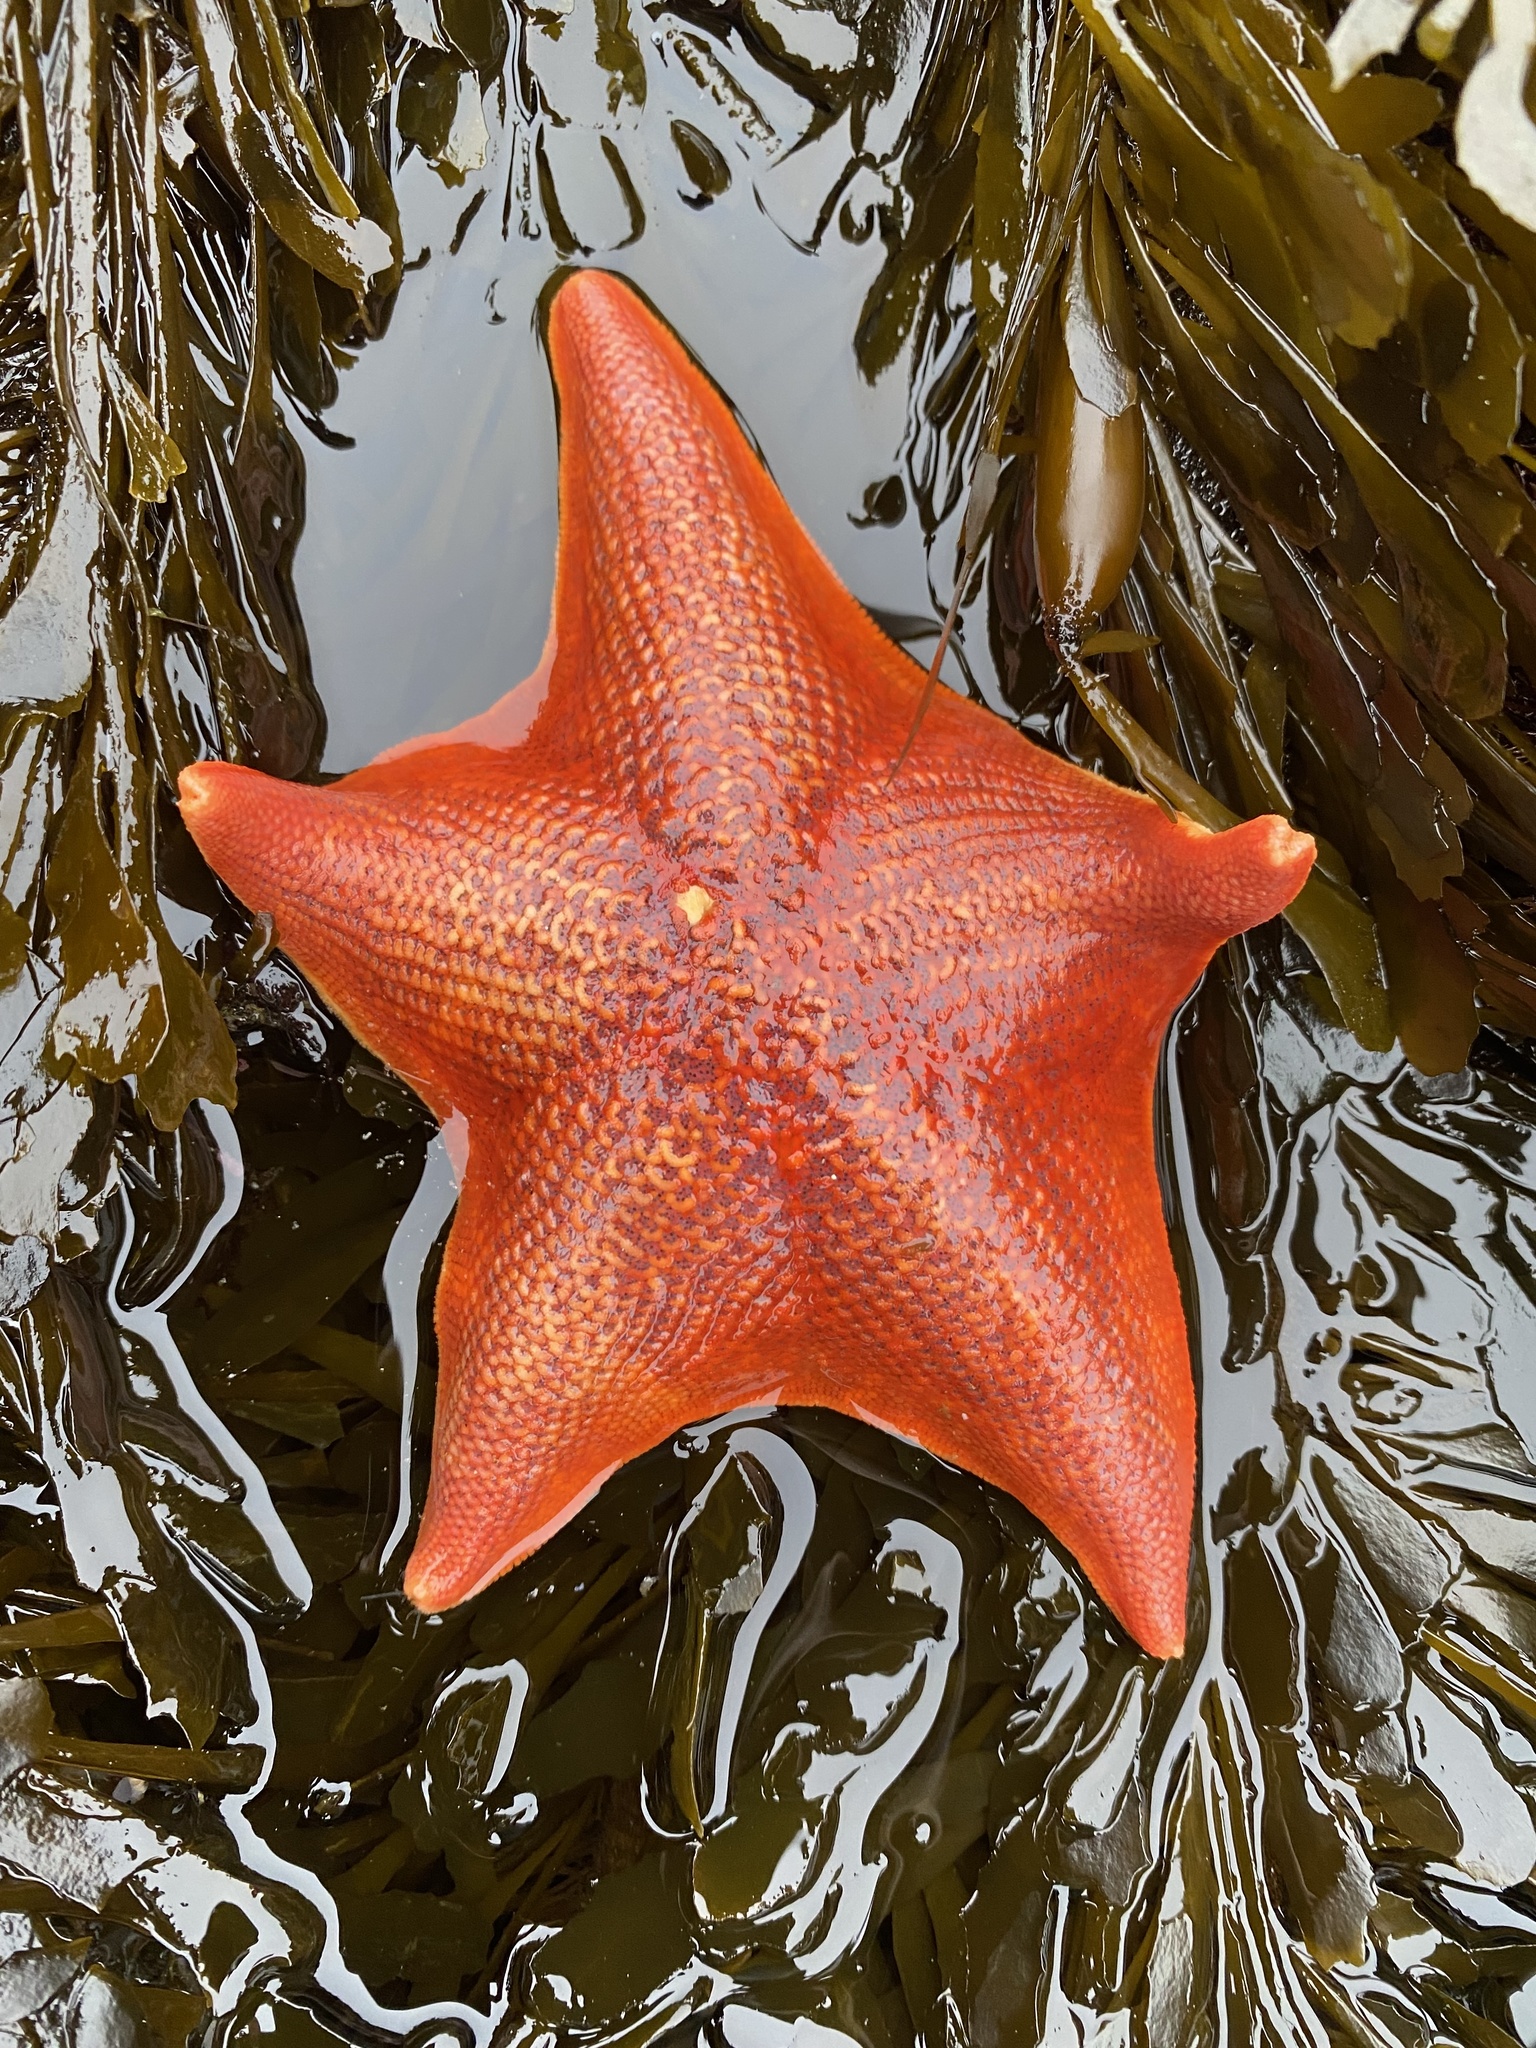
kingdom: Animalia
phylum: Echinodermata
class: Asteroidea
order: Valvatida
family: Asterinidae
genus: Patiria
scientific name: Patiria miniata
